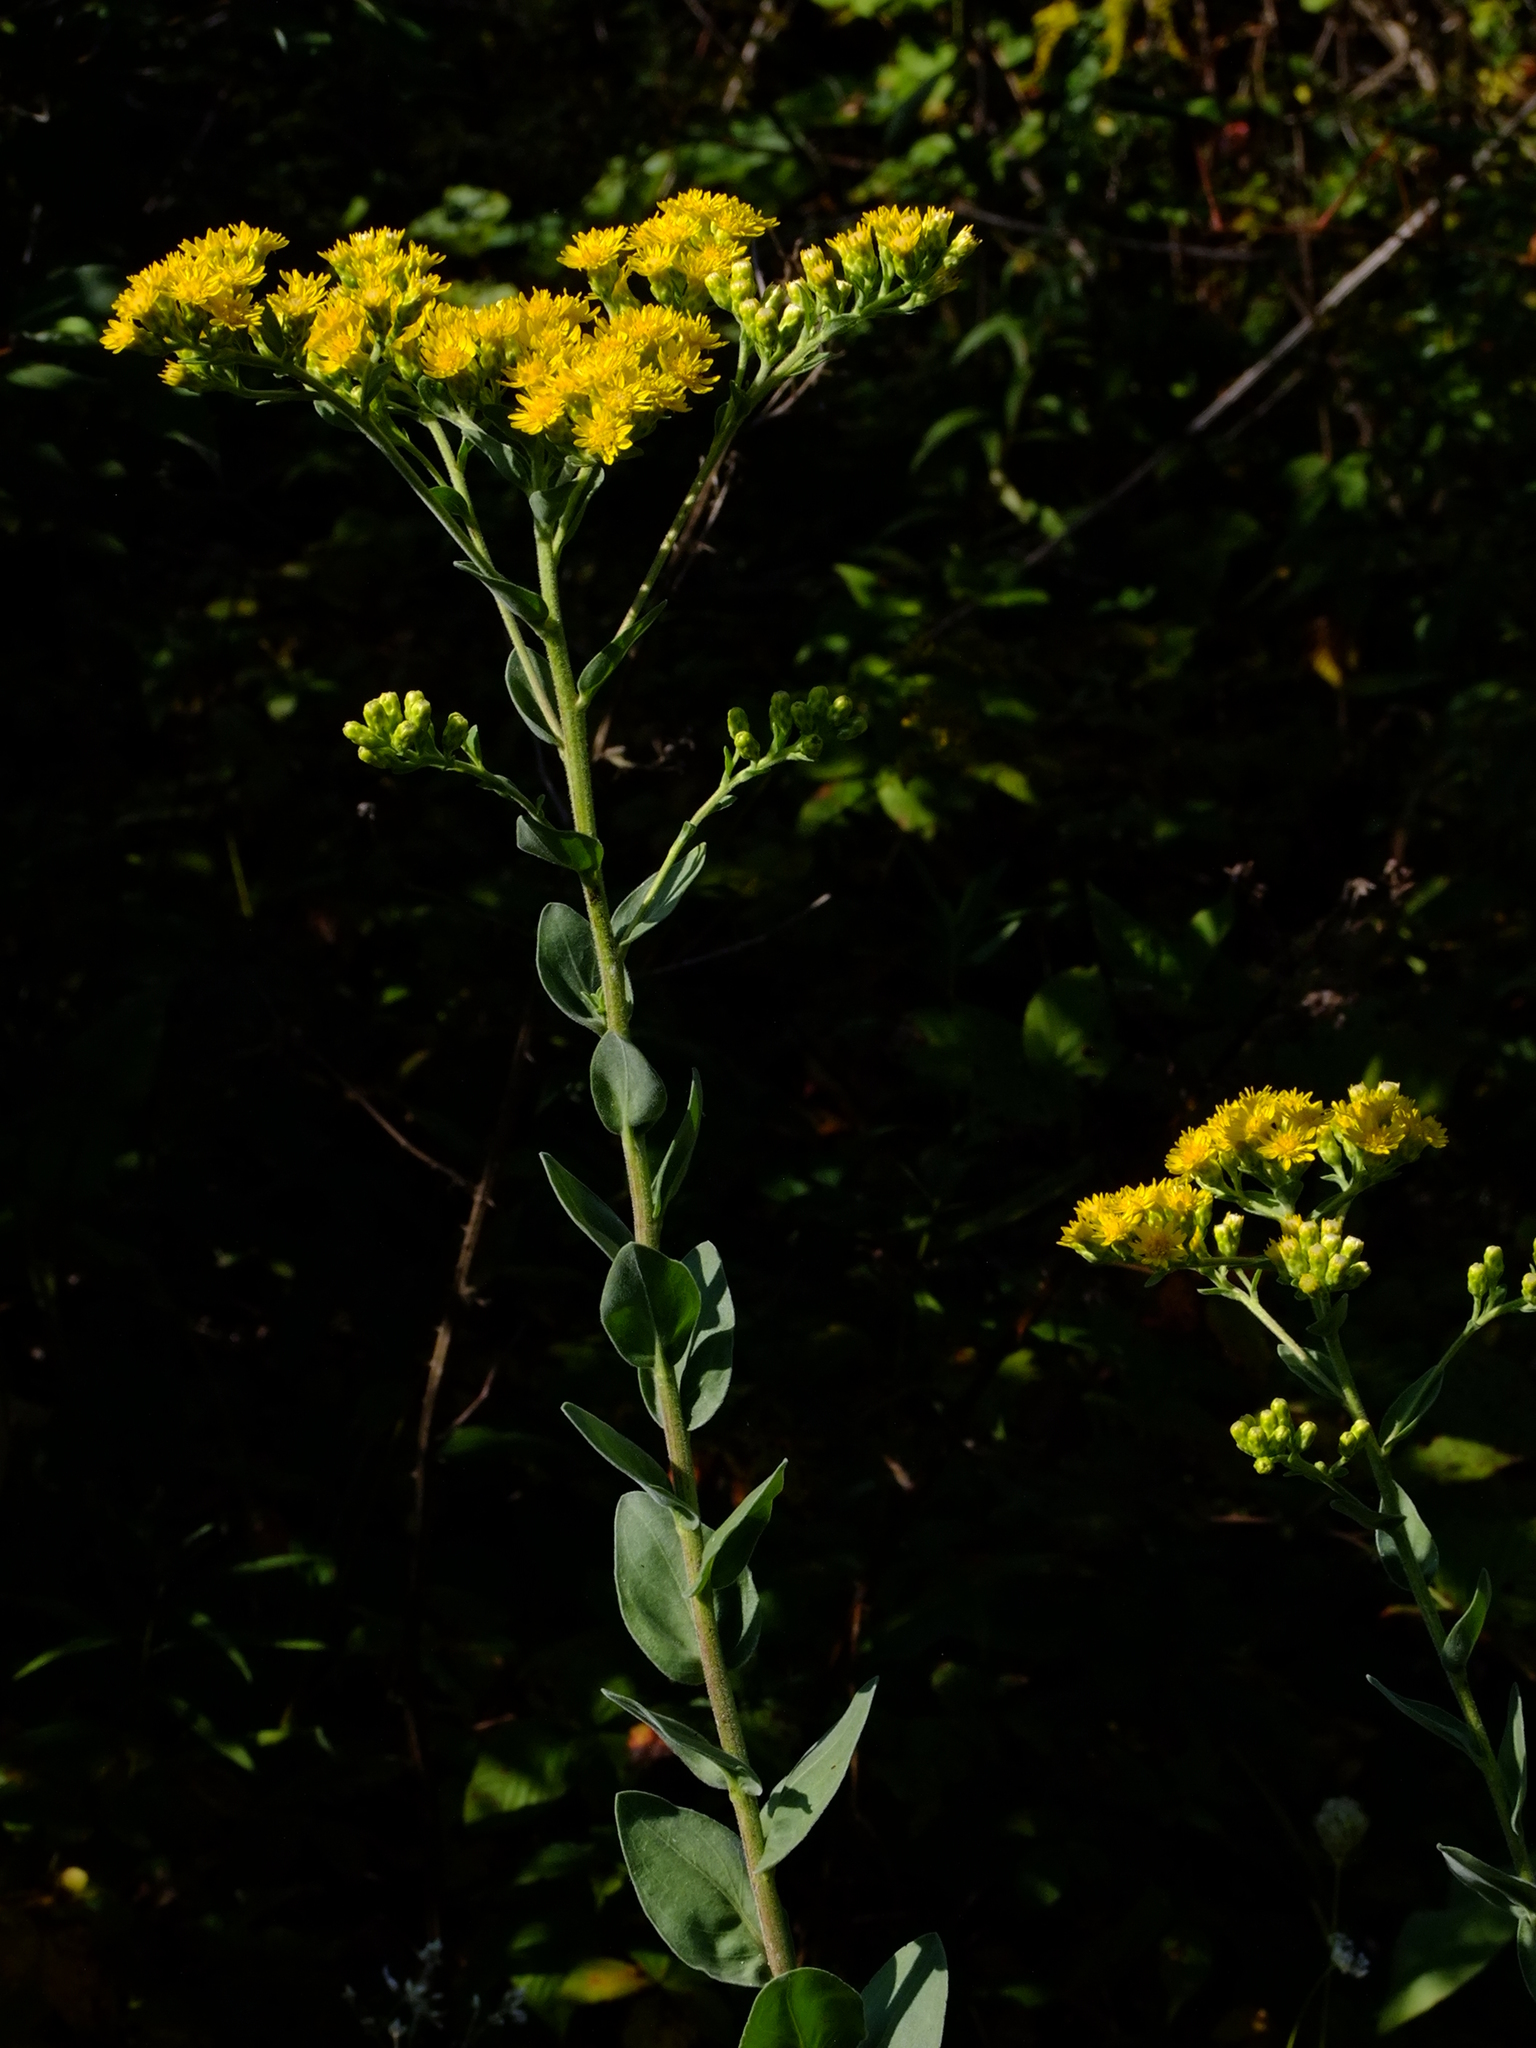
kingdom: Plantae
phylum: Tracheophyta
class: Magnoliopsida
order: Asterales
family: Asteraceae
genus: Solidago
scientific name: Solidago rigida
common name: Rigid goldenrod
